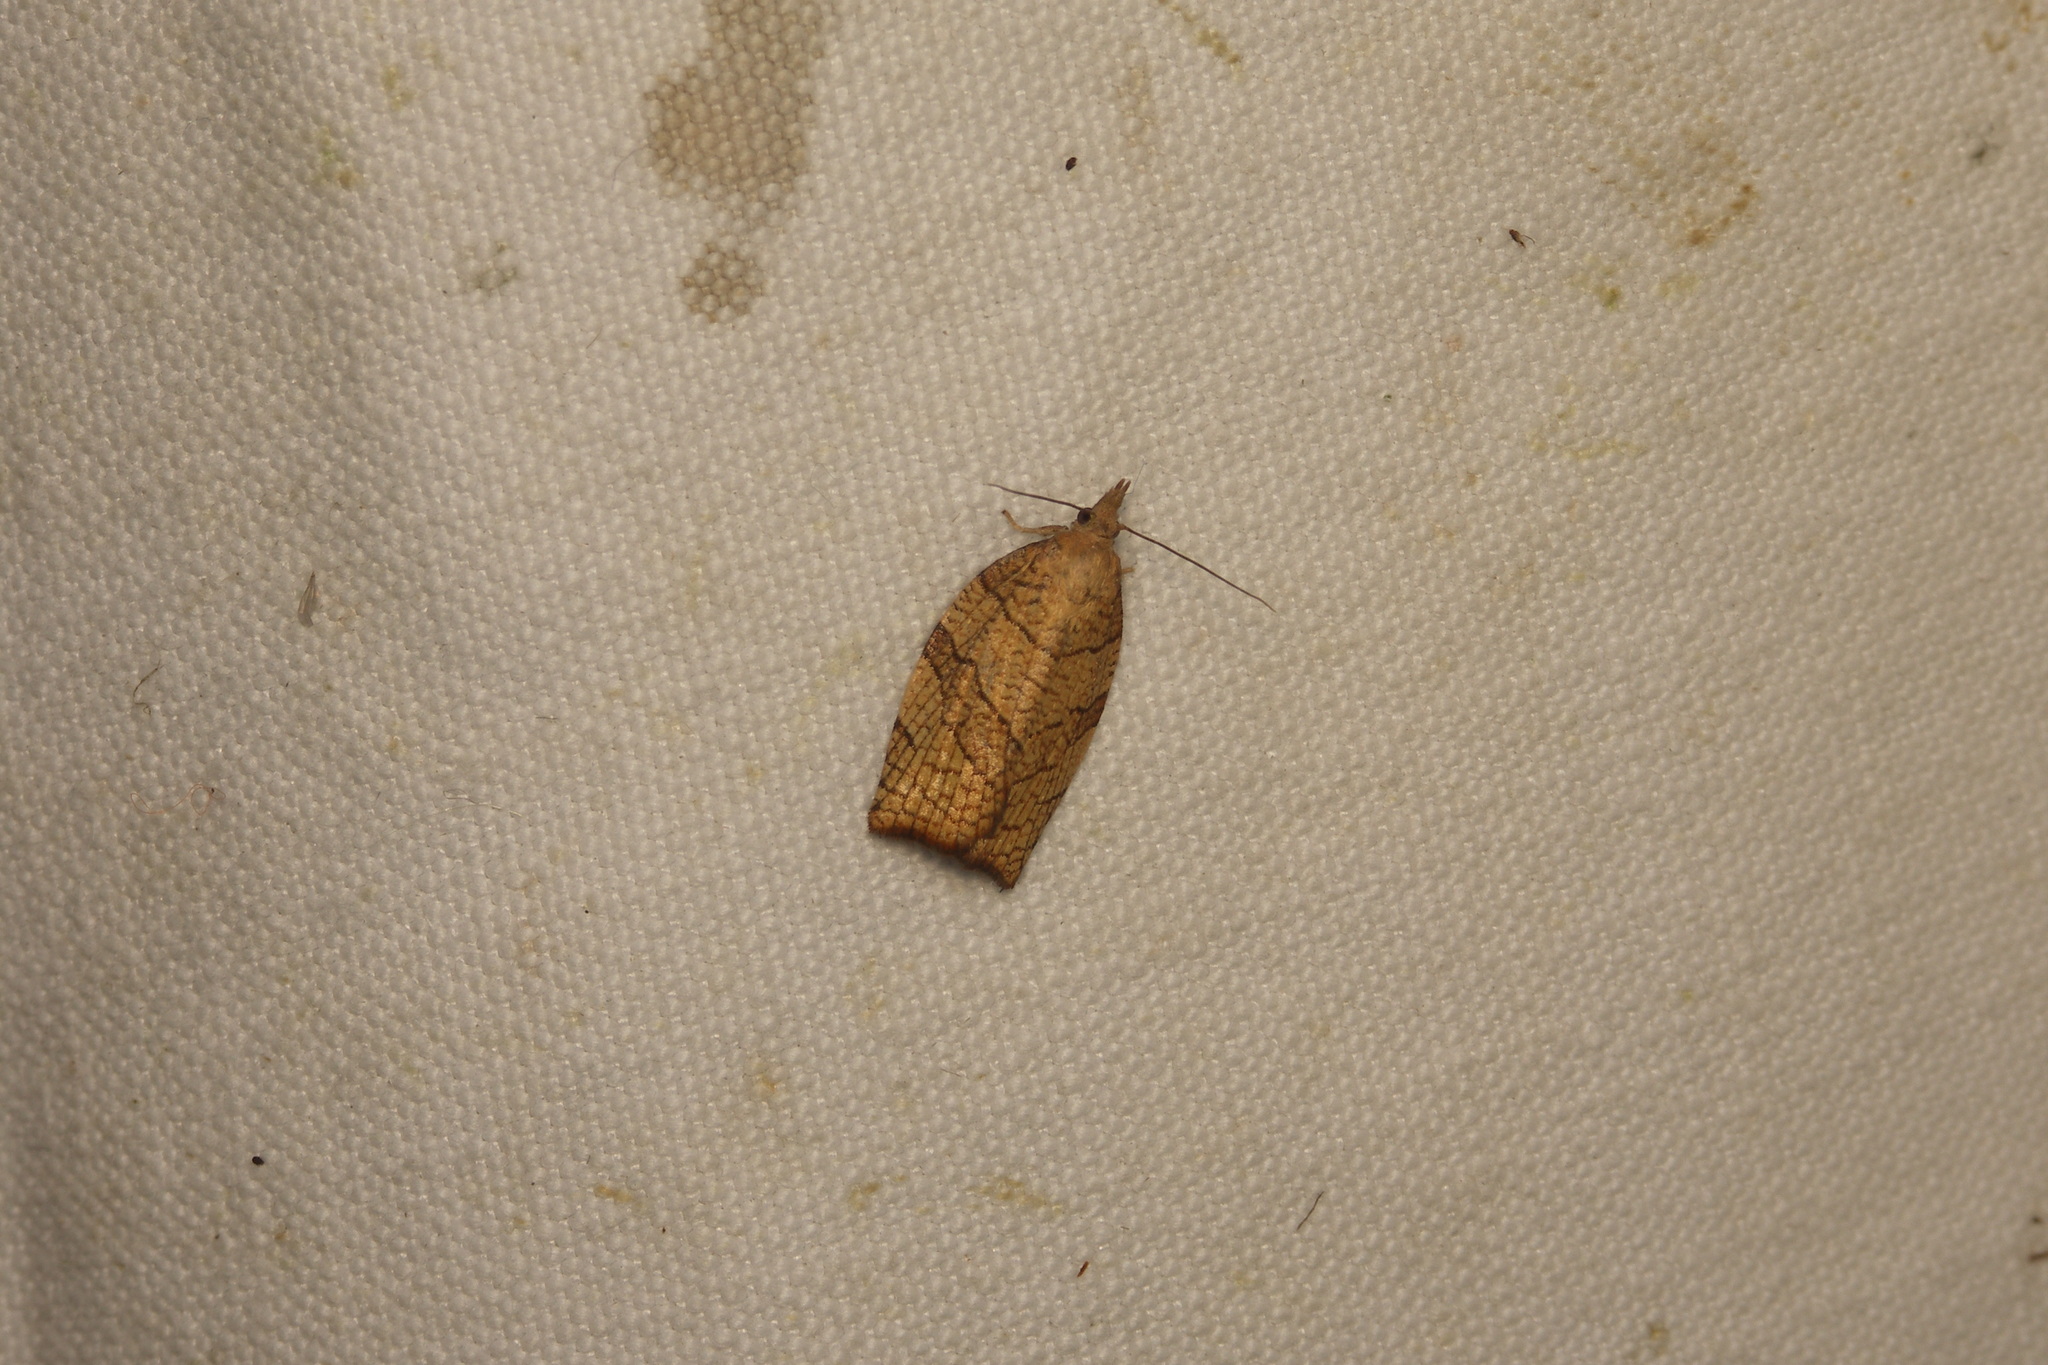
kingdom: Animalia
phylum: Arthropoda
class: Insecta
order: Lepidoptera
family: Tortricidae
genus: Pandemis
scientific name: Pandemis corylana
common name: Chequered fruit-tree tortrix
